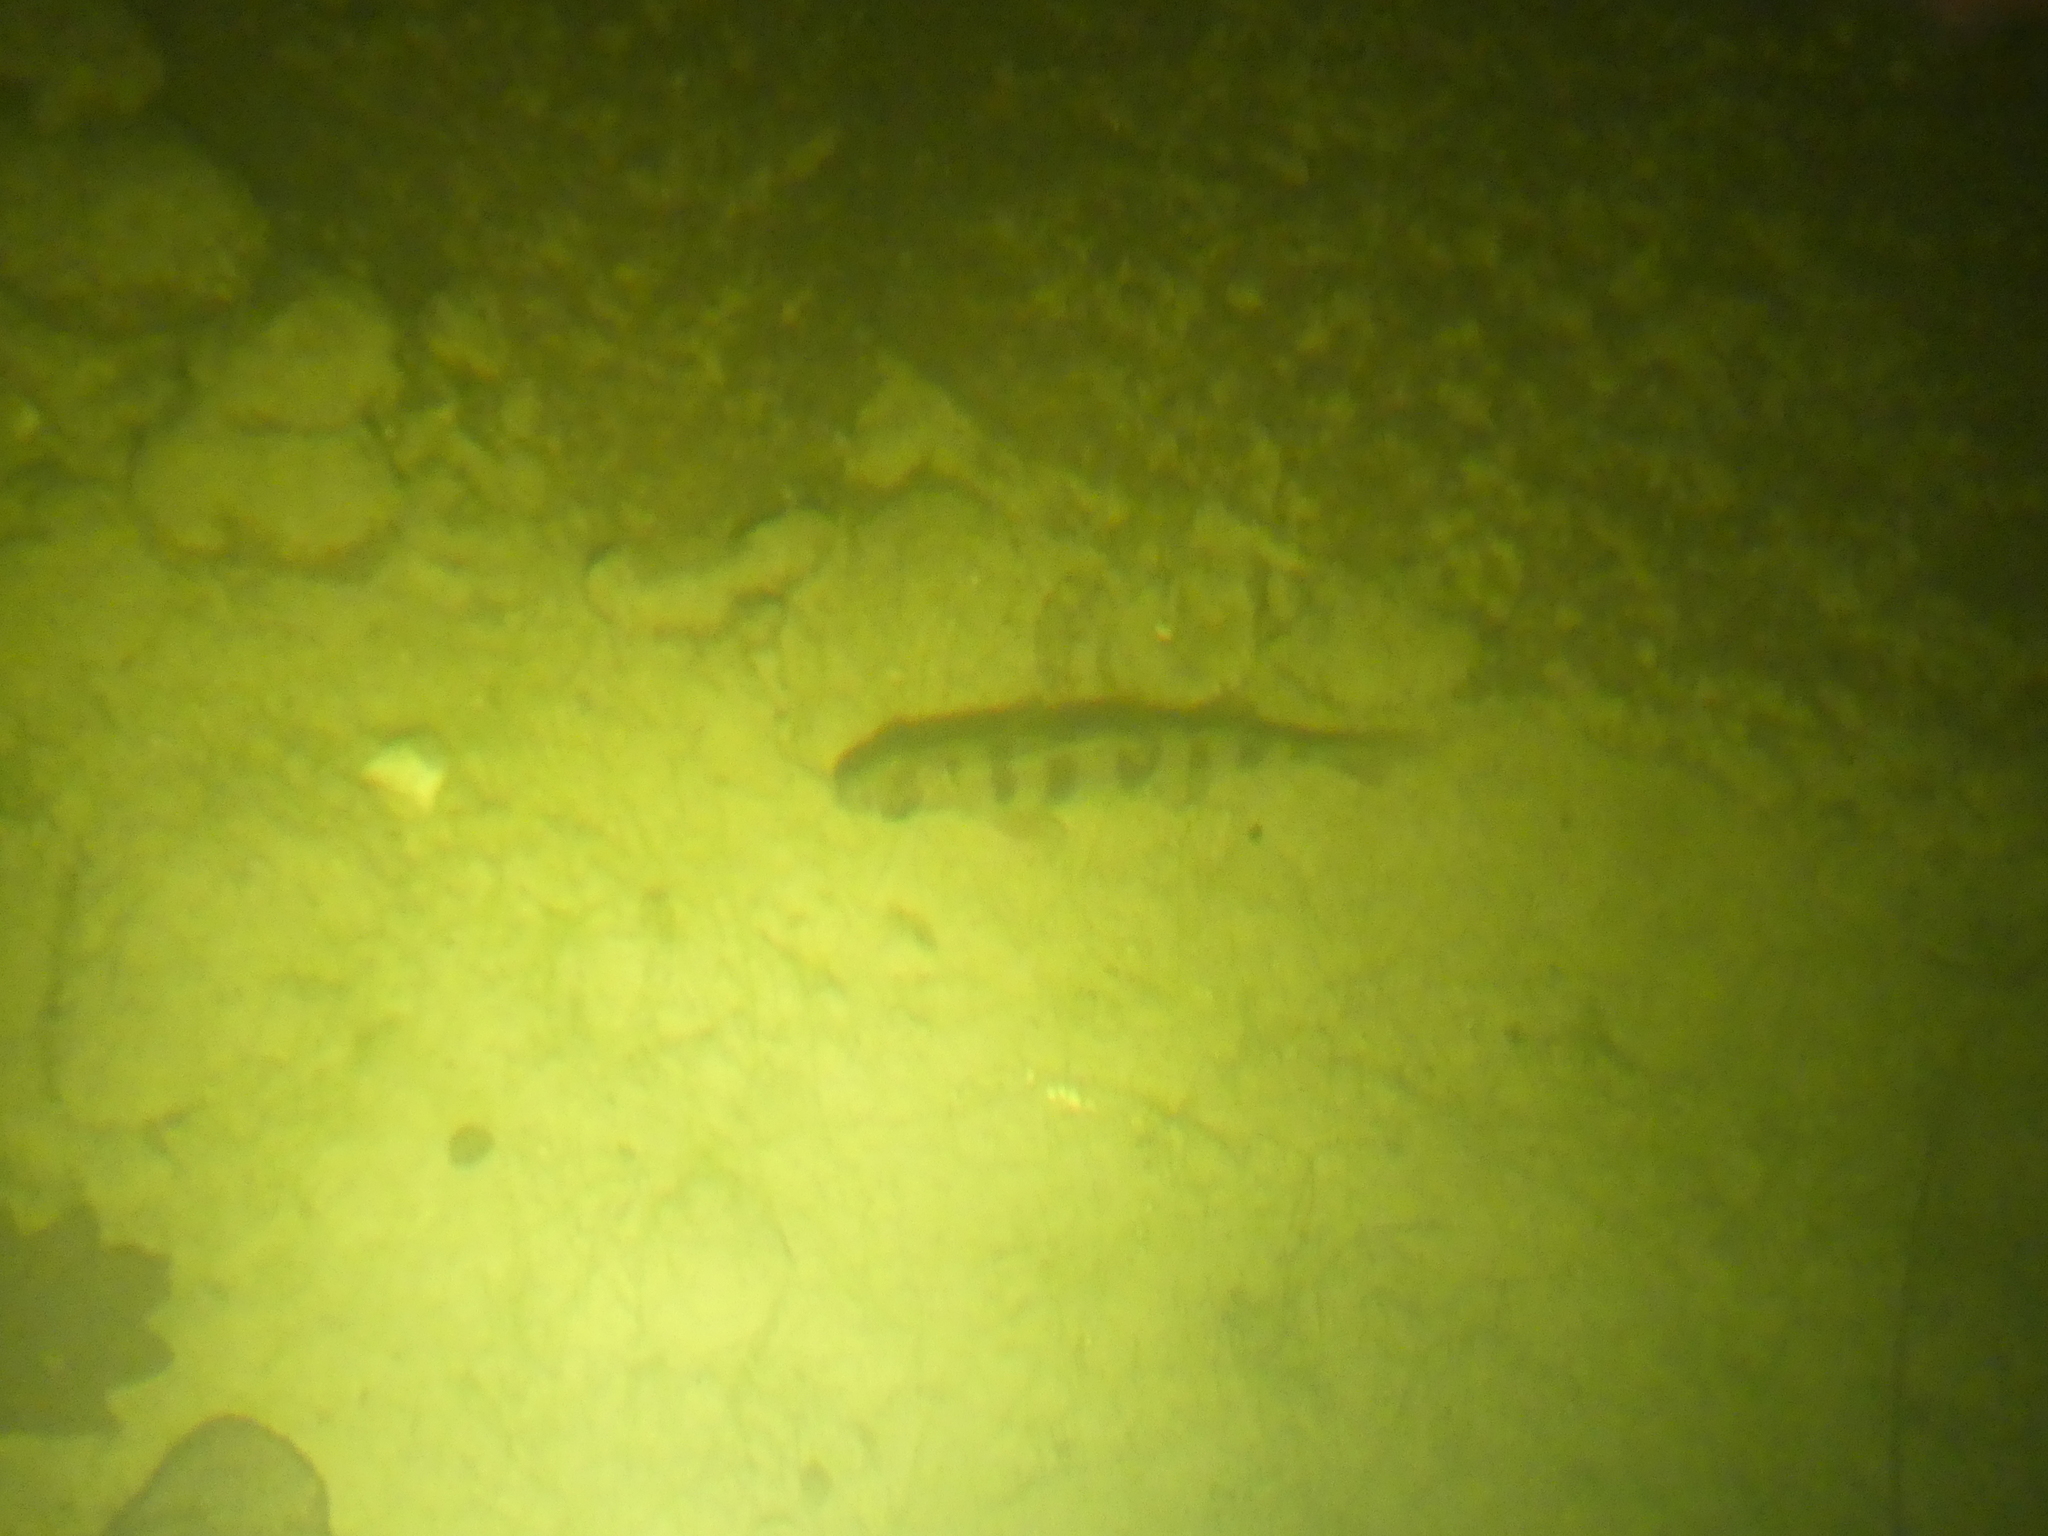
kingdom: Animalia
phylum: Chordata
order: Perciformes
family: Percidae
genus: Perca
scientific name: Perca fluviatilis
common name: Perch
